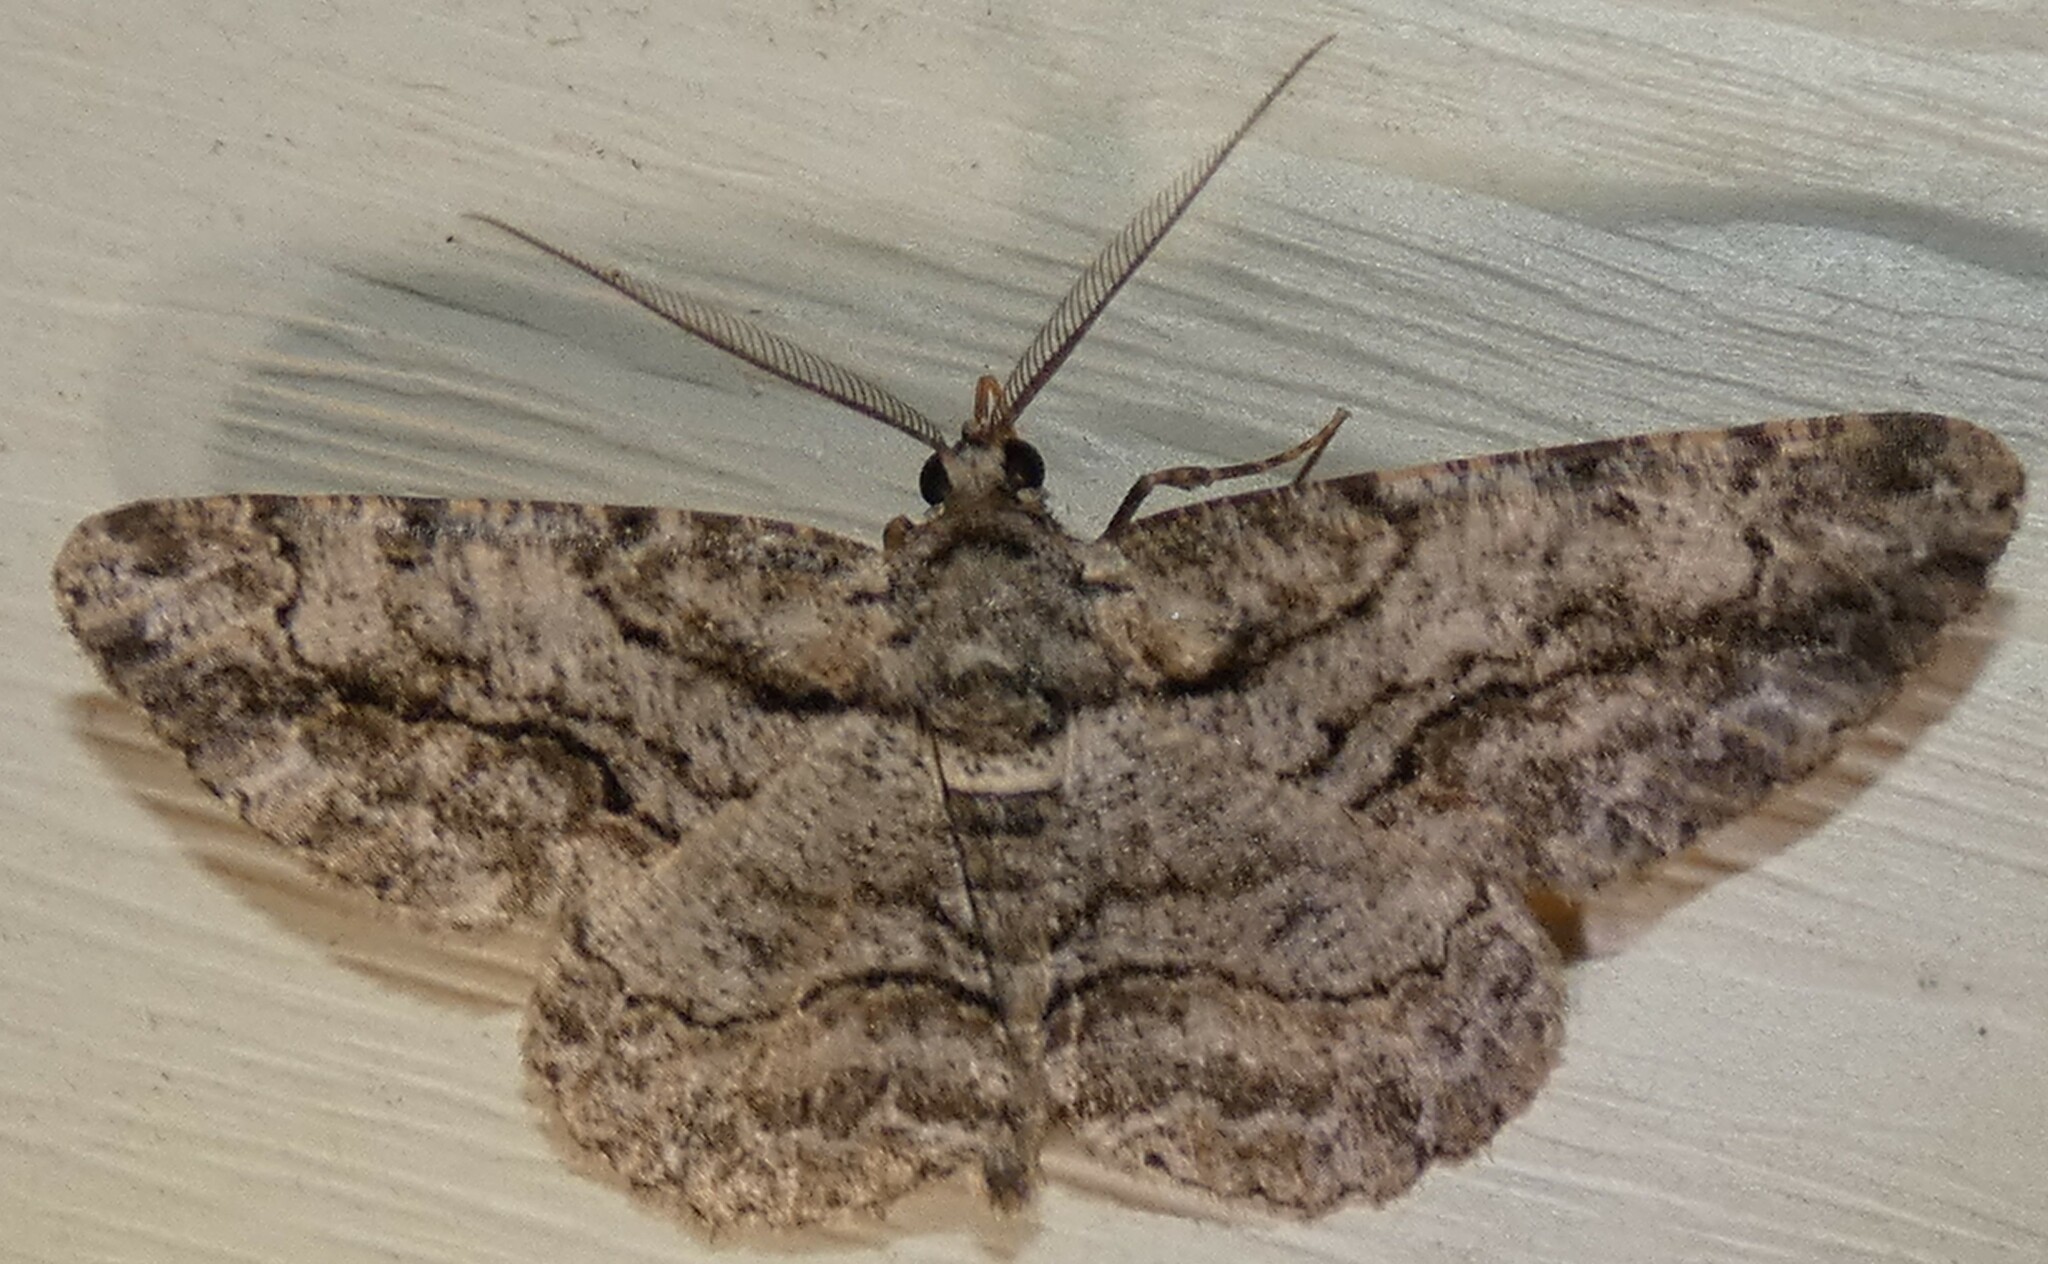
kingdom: Animalia
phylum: Arthropoda
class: Insecta
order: Lepidoptera
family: Geometridae
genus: Anavitrinella
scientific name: Anavitrinella pampinaria
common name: Common gray
